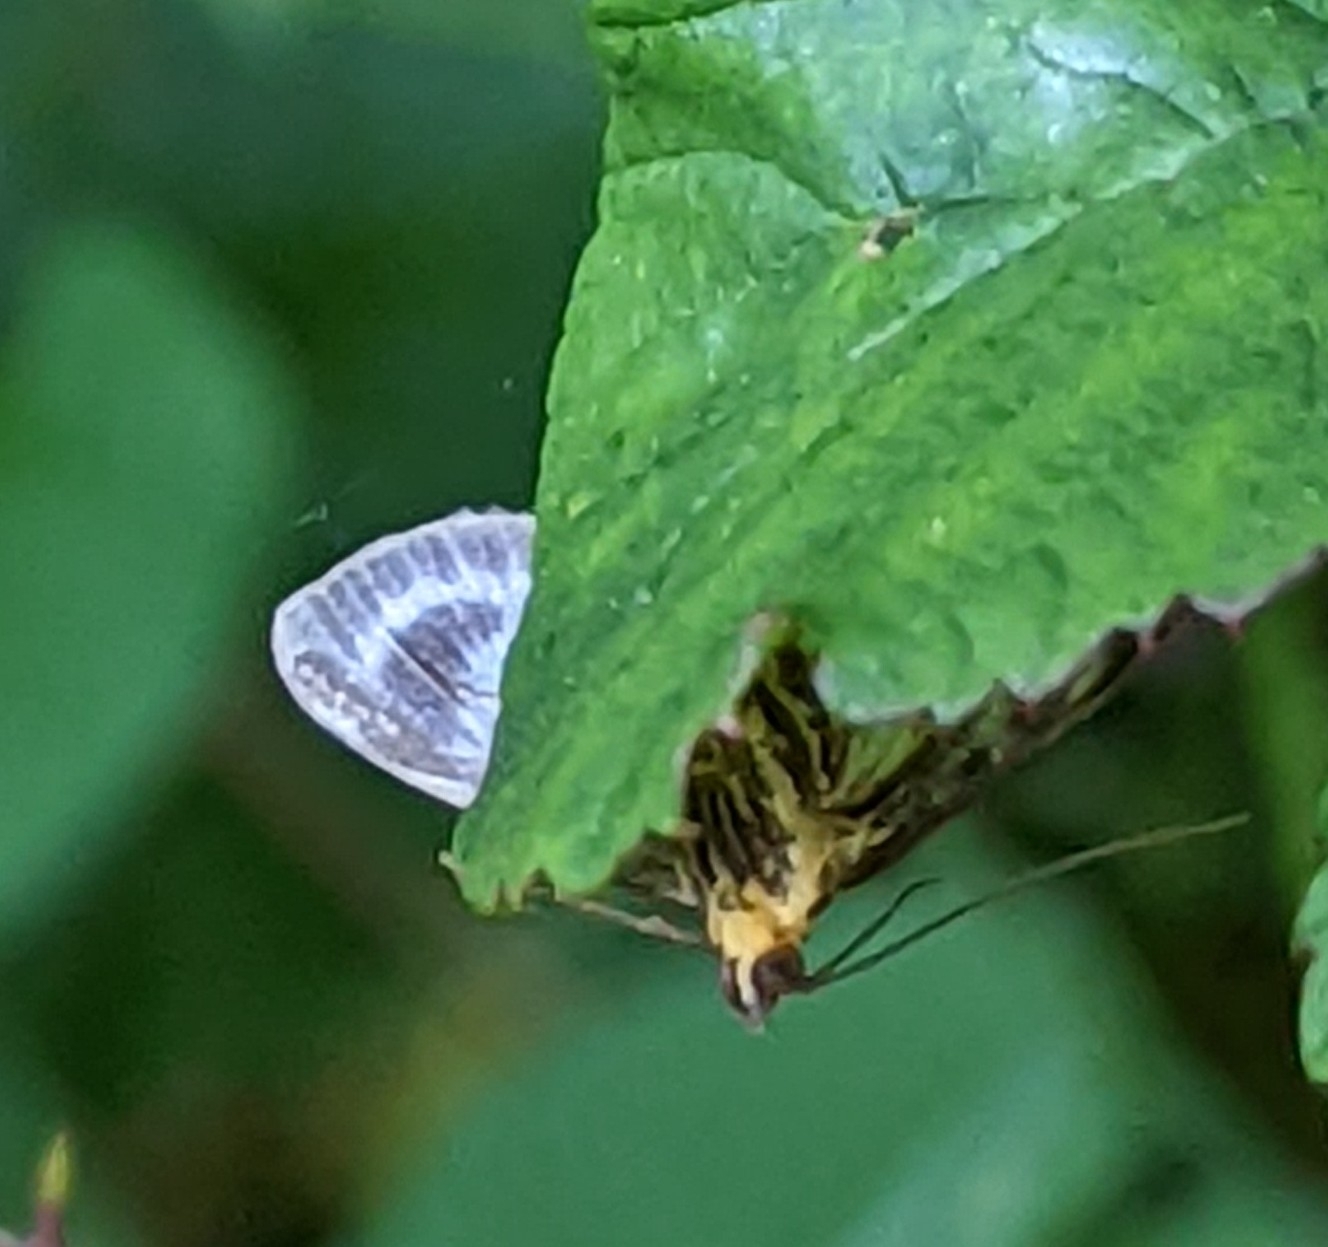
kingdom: Animalia
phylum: Arthropoda
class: Insecta
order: Lepidoptera
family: Crambidae
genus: Anania
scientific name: Anania hortulata
